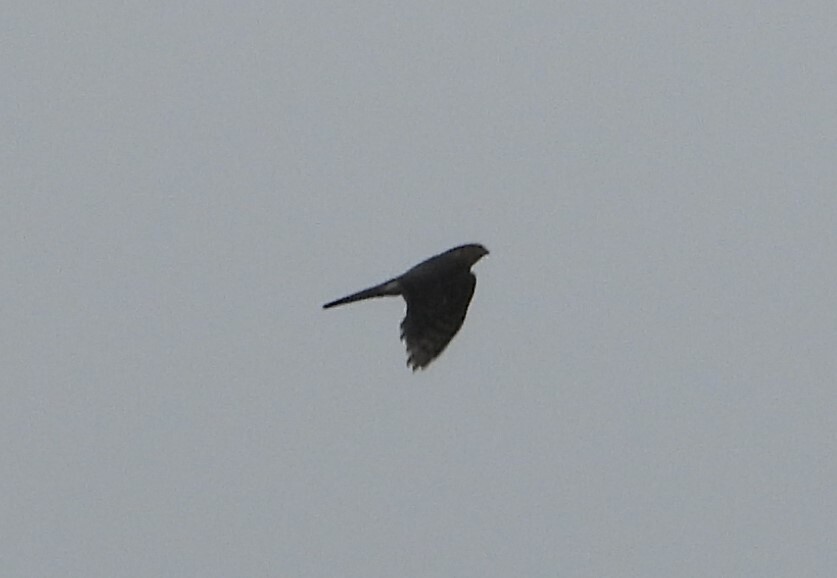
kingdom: Animalia
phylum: Chordata
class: Aves
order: Accipitriformes
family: Accipitridae
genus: Accipiter
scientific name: Accipiter nisus
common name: Eurasian sparrowhawk
